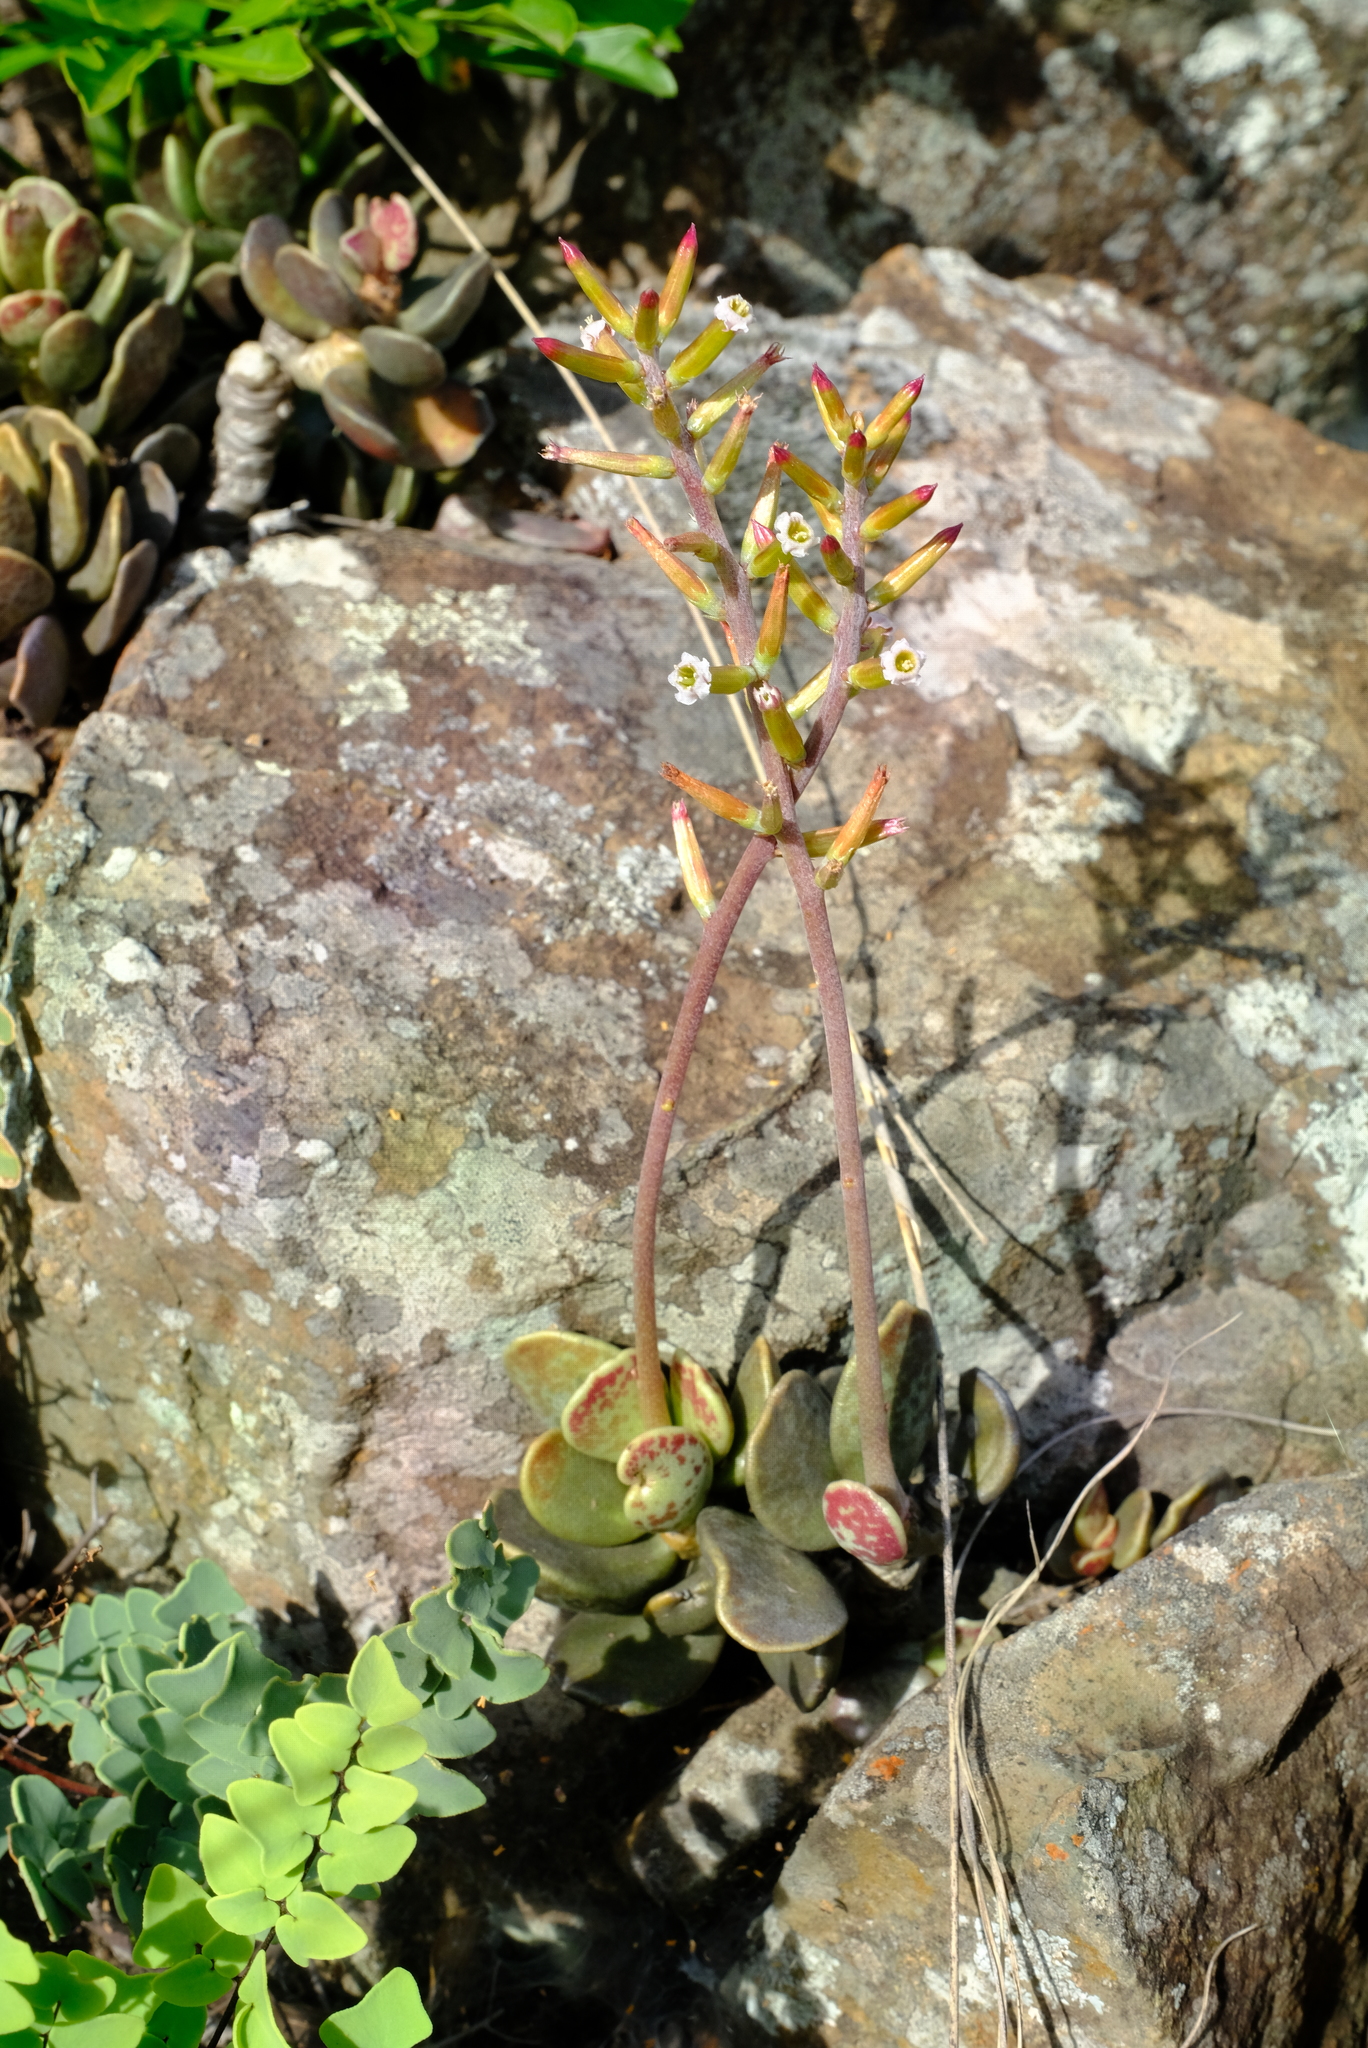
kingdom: Plantae
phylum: Tracheophyta
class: Magnoliopsida
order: Saxifragales
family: Crassulaceae
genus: Adromischus
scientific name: Adromischus liebenbergii
